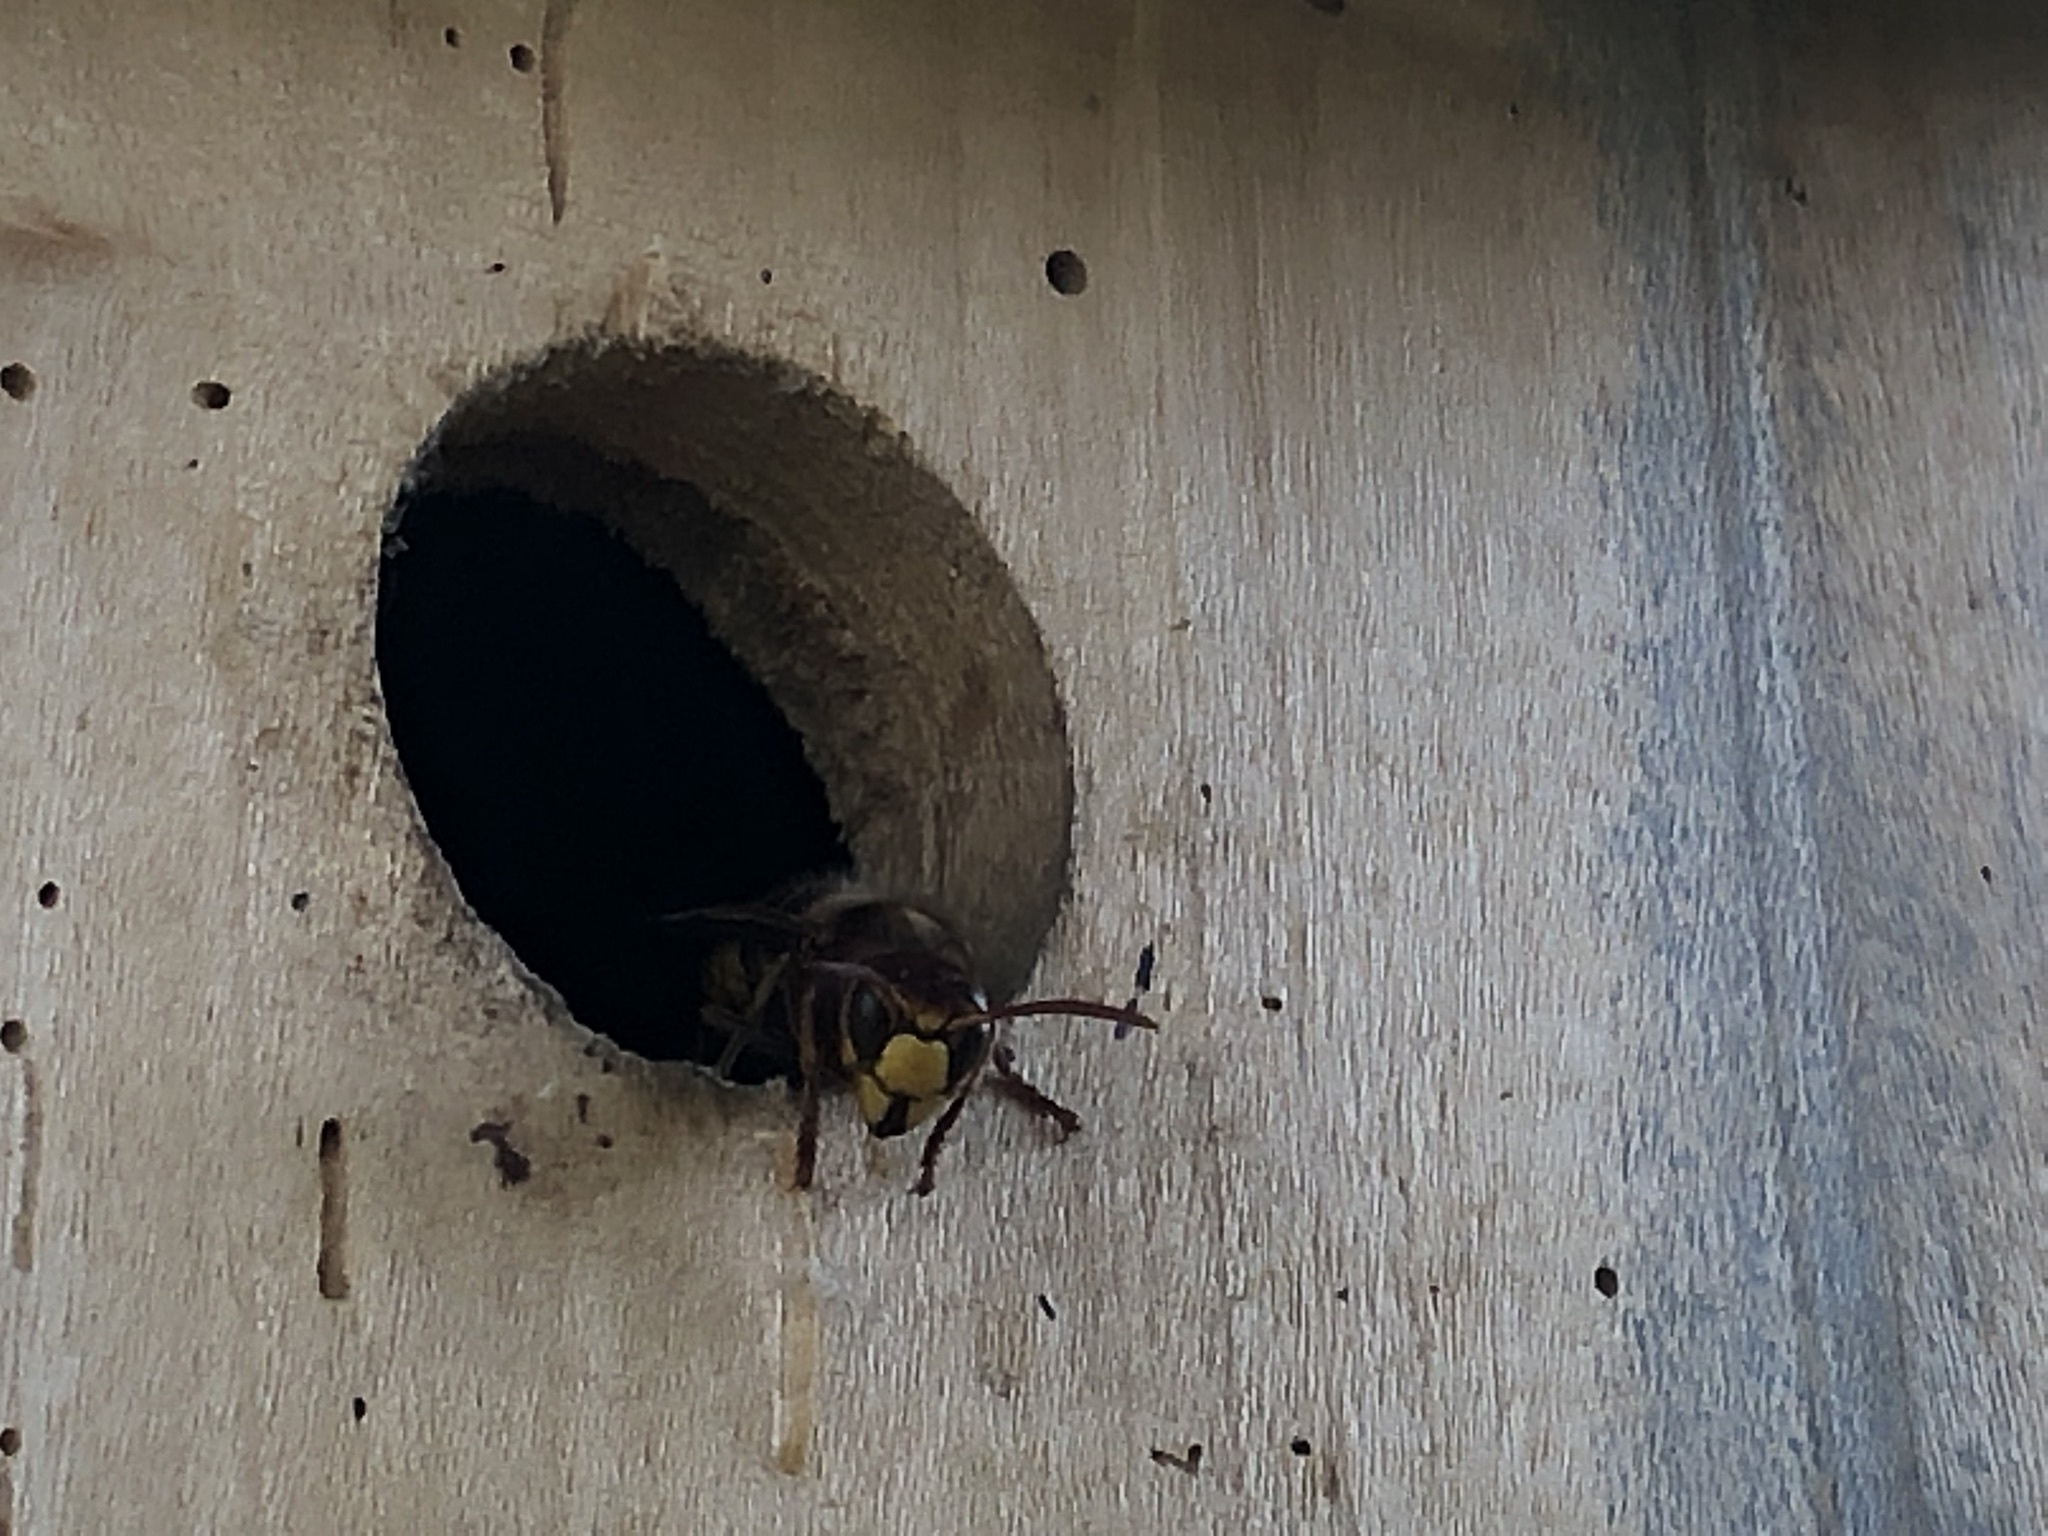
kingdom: Animalia
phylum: Arthropoda
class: Insecta
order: Hymenoptera
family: Vespidae
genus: Vespa
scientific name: Vespa crabro
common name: Hornet
